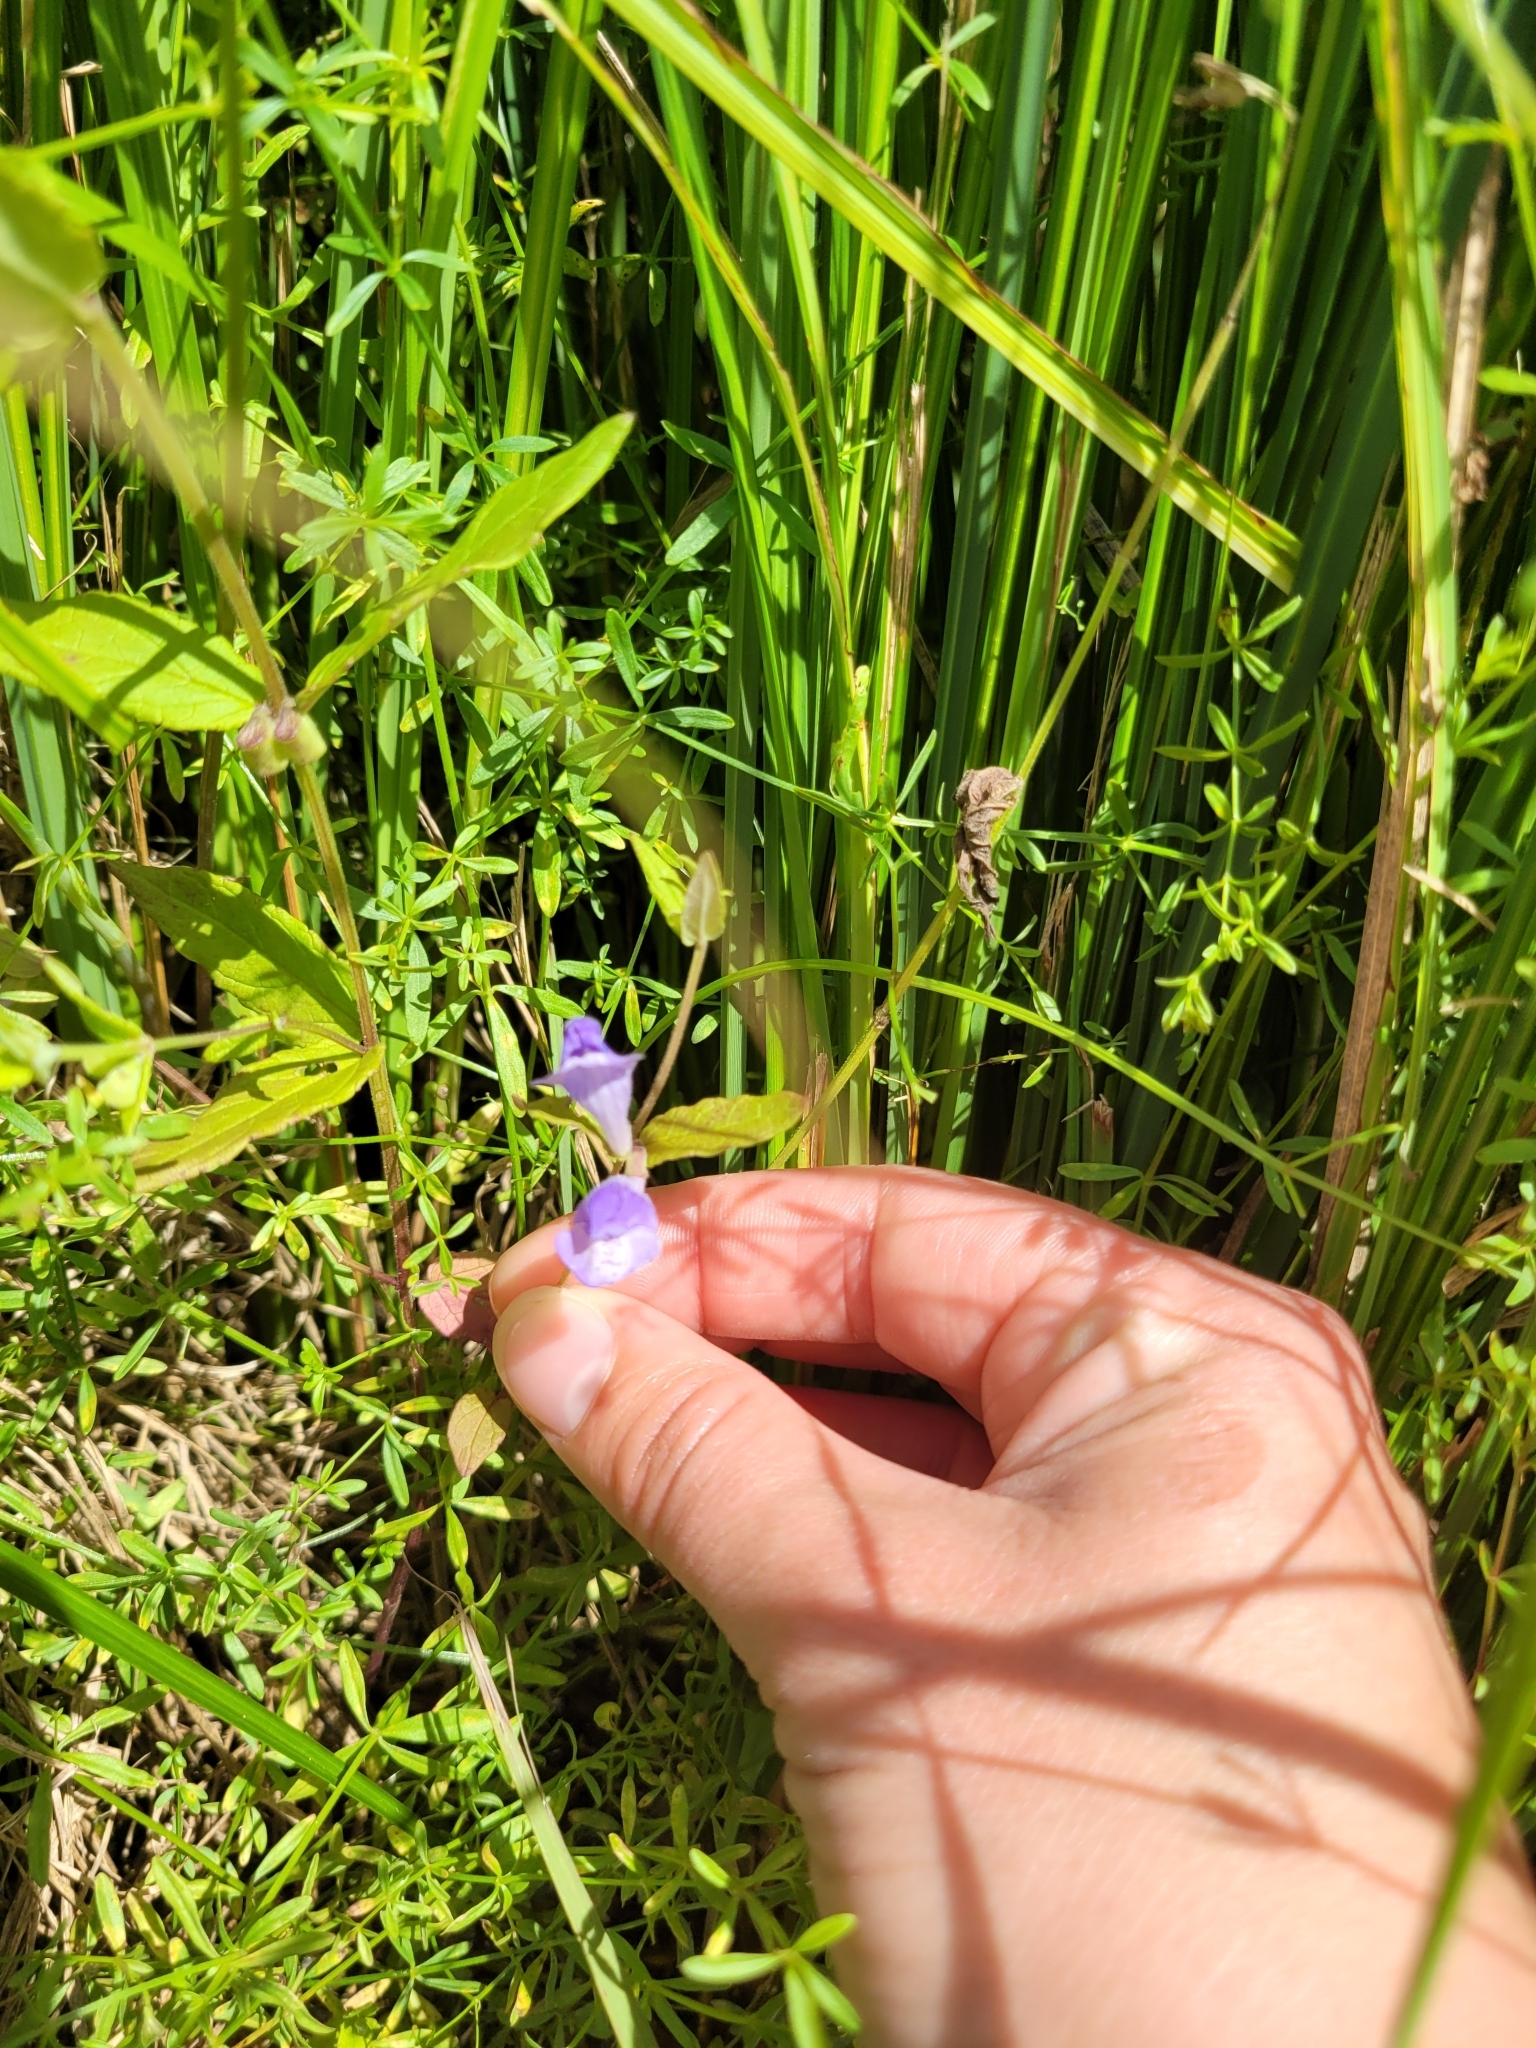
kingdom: Plantae
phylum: Tracheophyta
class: Magnoliopsida
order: Lamiales
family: Lamiaceae
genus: Scutellaria
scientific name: Scutellaria galericulata
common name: Skullcap
